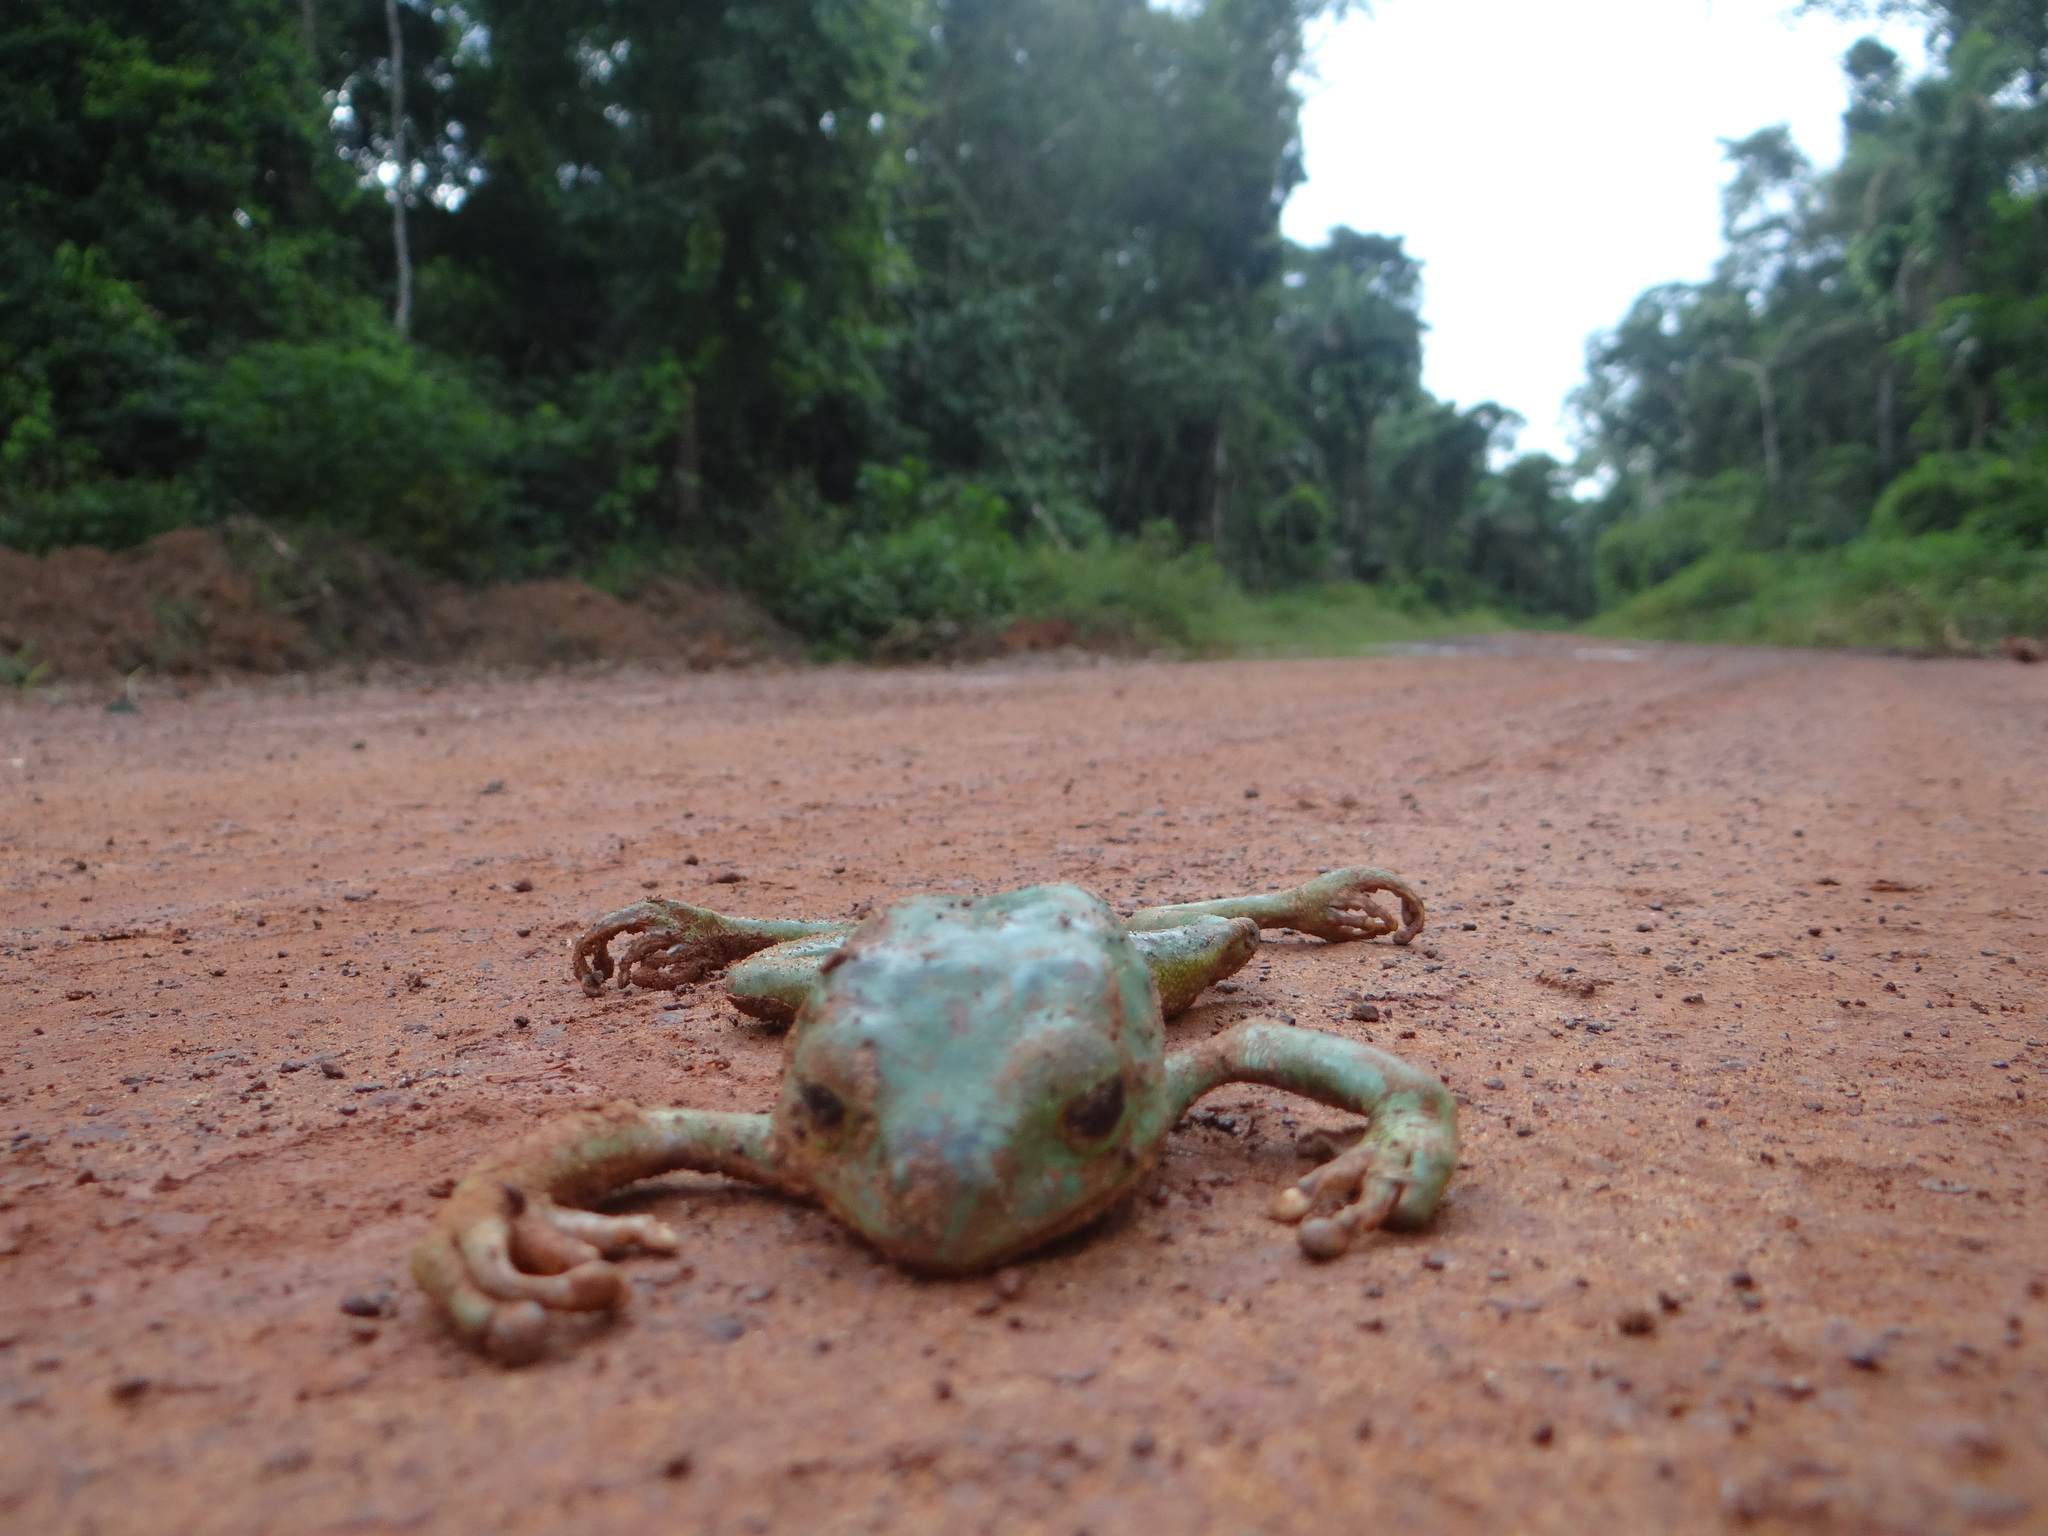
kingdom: Animalia
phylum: Chordata
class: Amphibia
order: Anura
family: Phyllomedusidae
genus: Phyllomedusa
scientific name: Phyllomedusa camba
